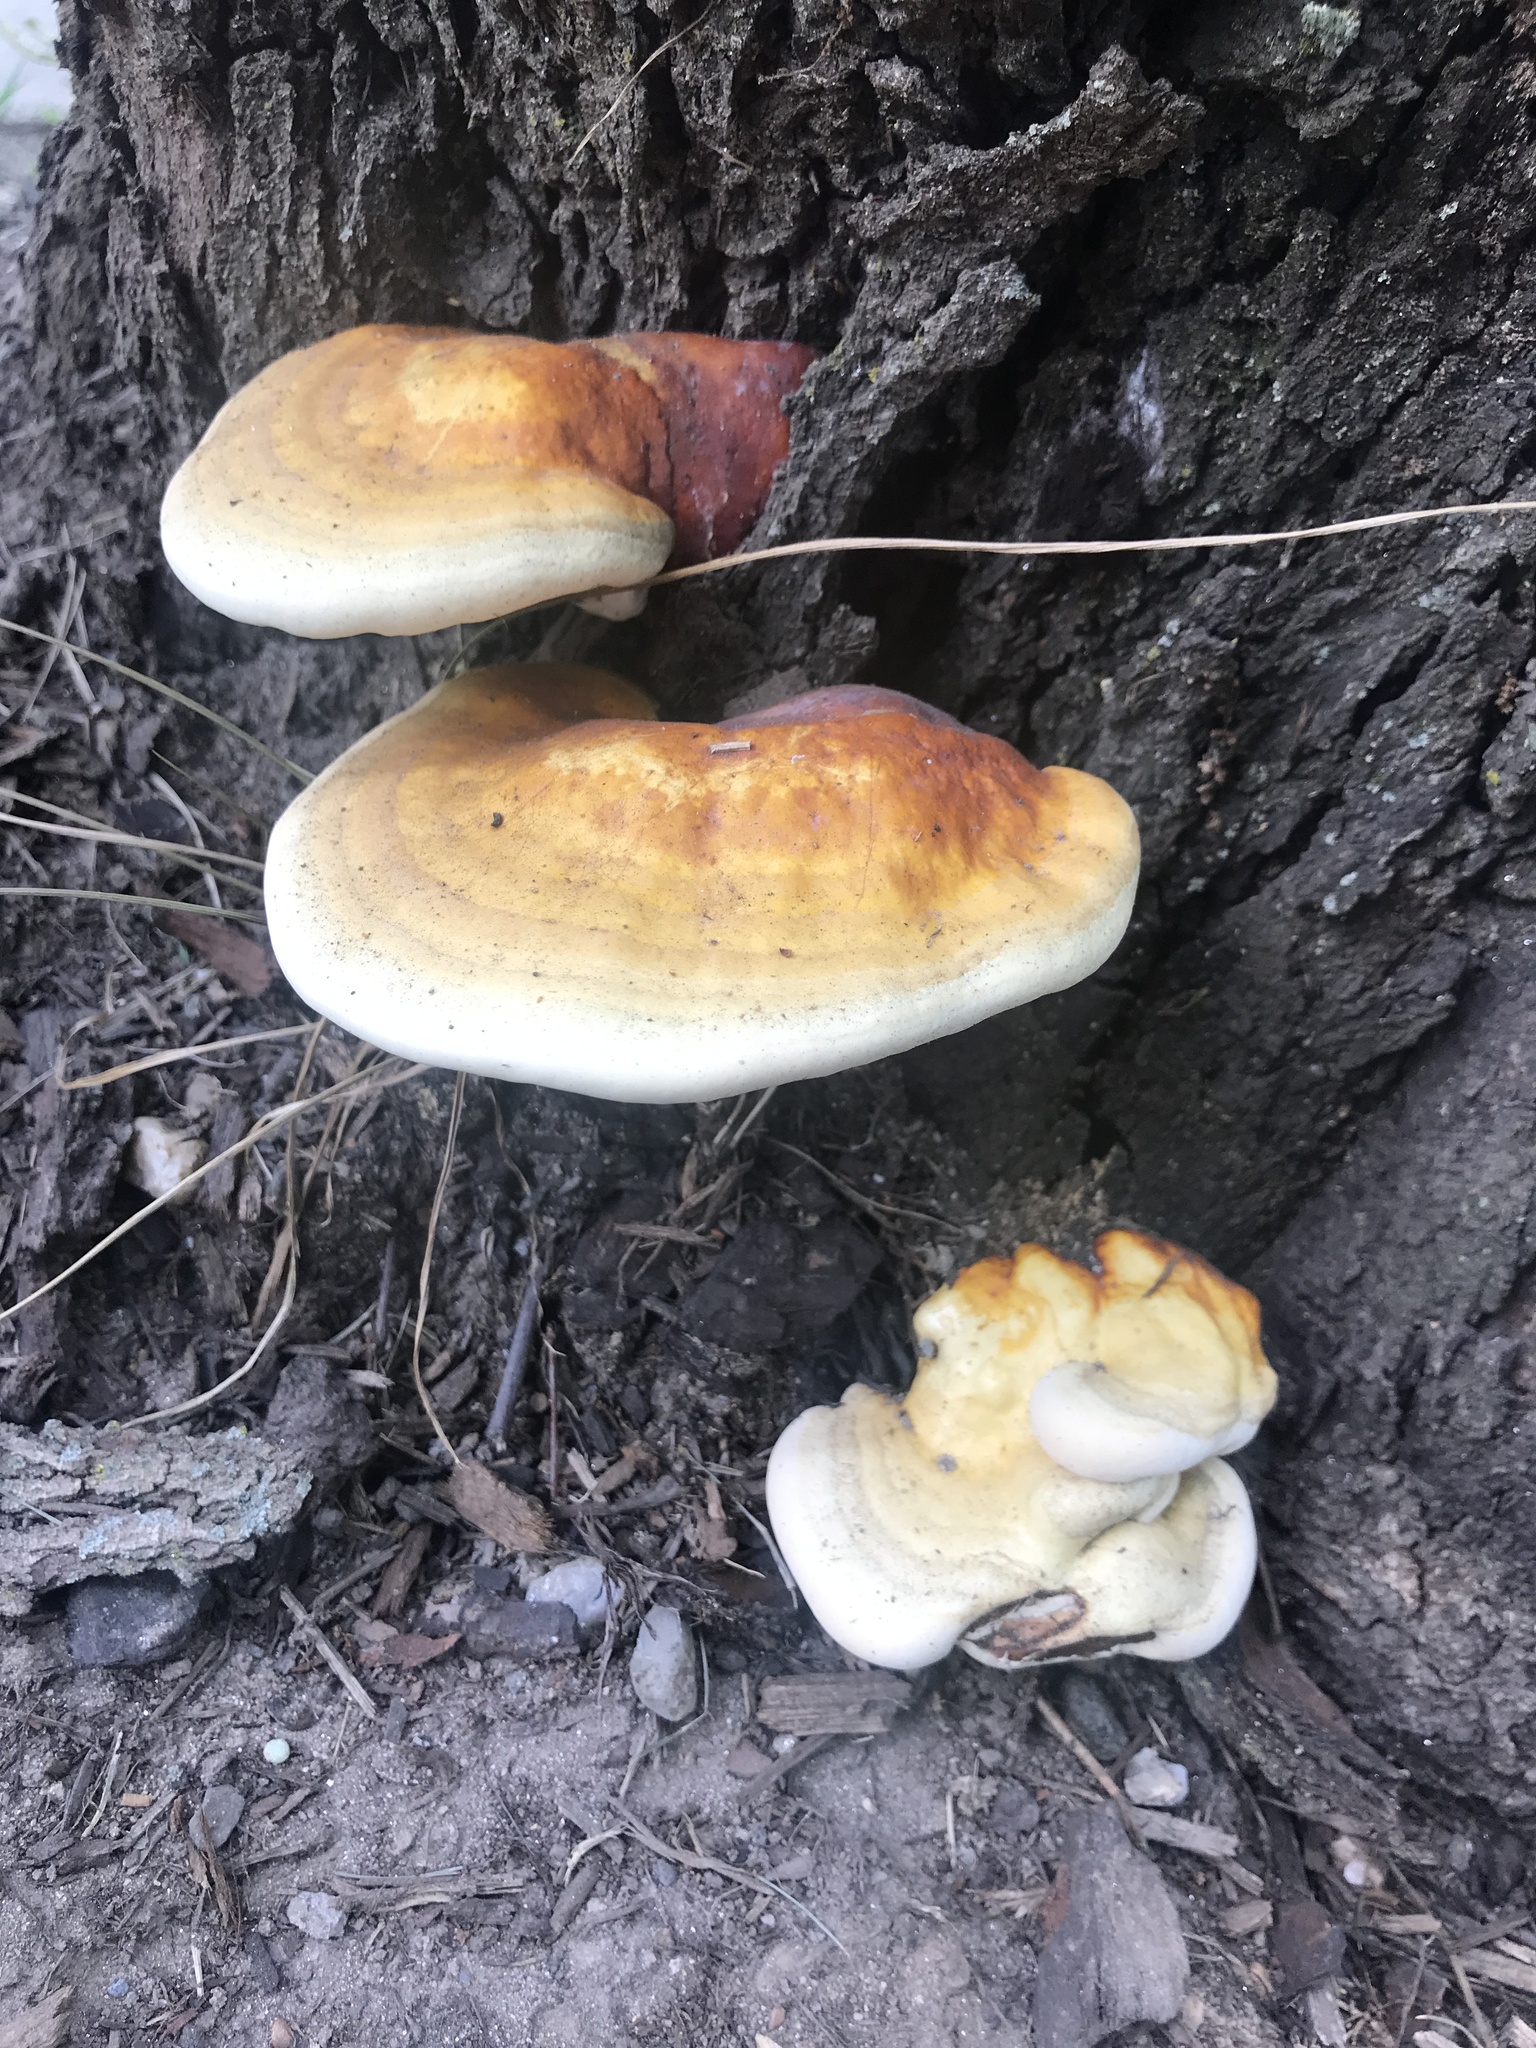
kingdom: Fungi
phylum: Basidiomycota
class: Agaricomycetes
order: Polyporales
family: Polyporaceae
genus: Ganoderma
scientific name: Ganoderma curtisii
